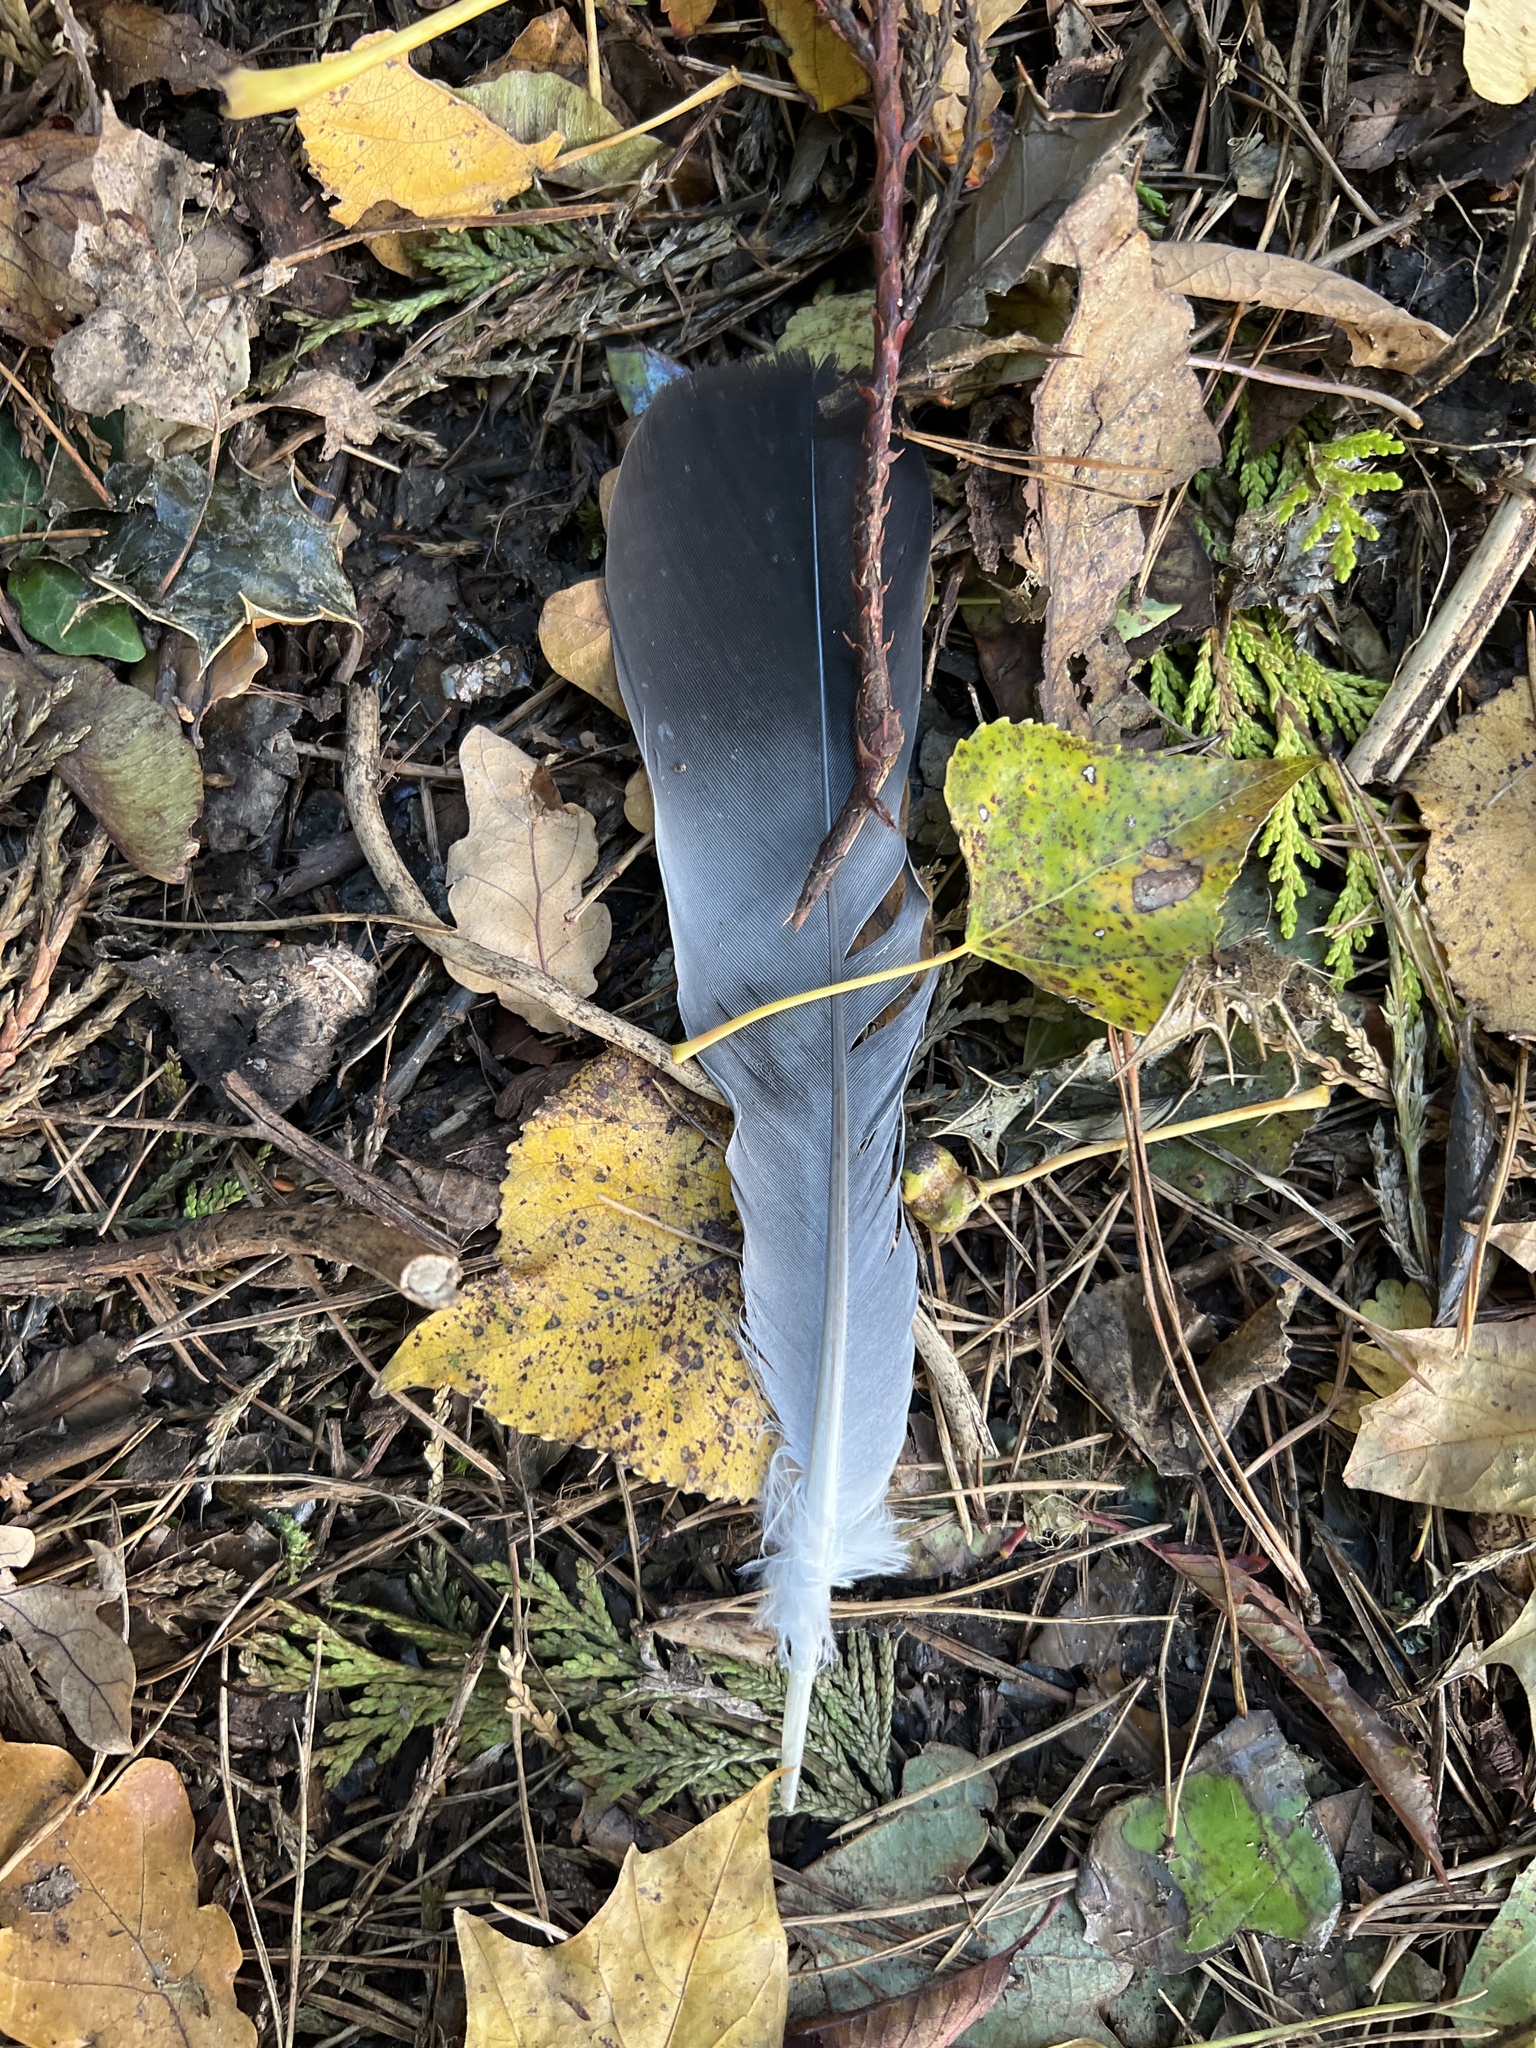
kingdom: Animalia
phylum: Chordata
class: Aves
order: Columbiformes
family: Columbidae
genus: Columba
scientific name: Columba palumbus
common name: Common wood pigeon
